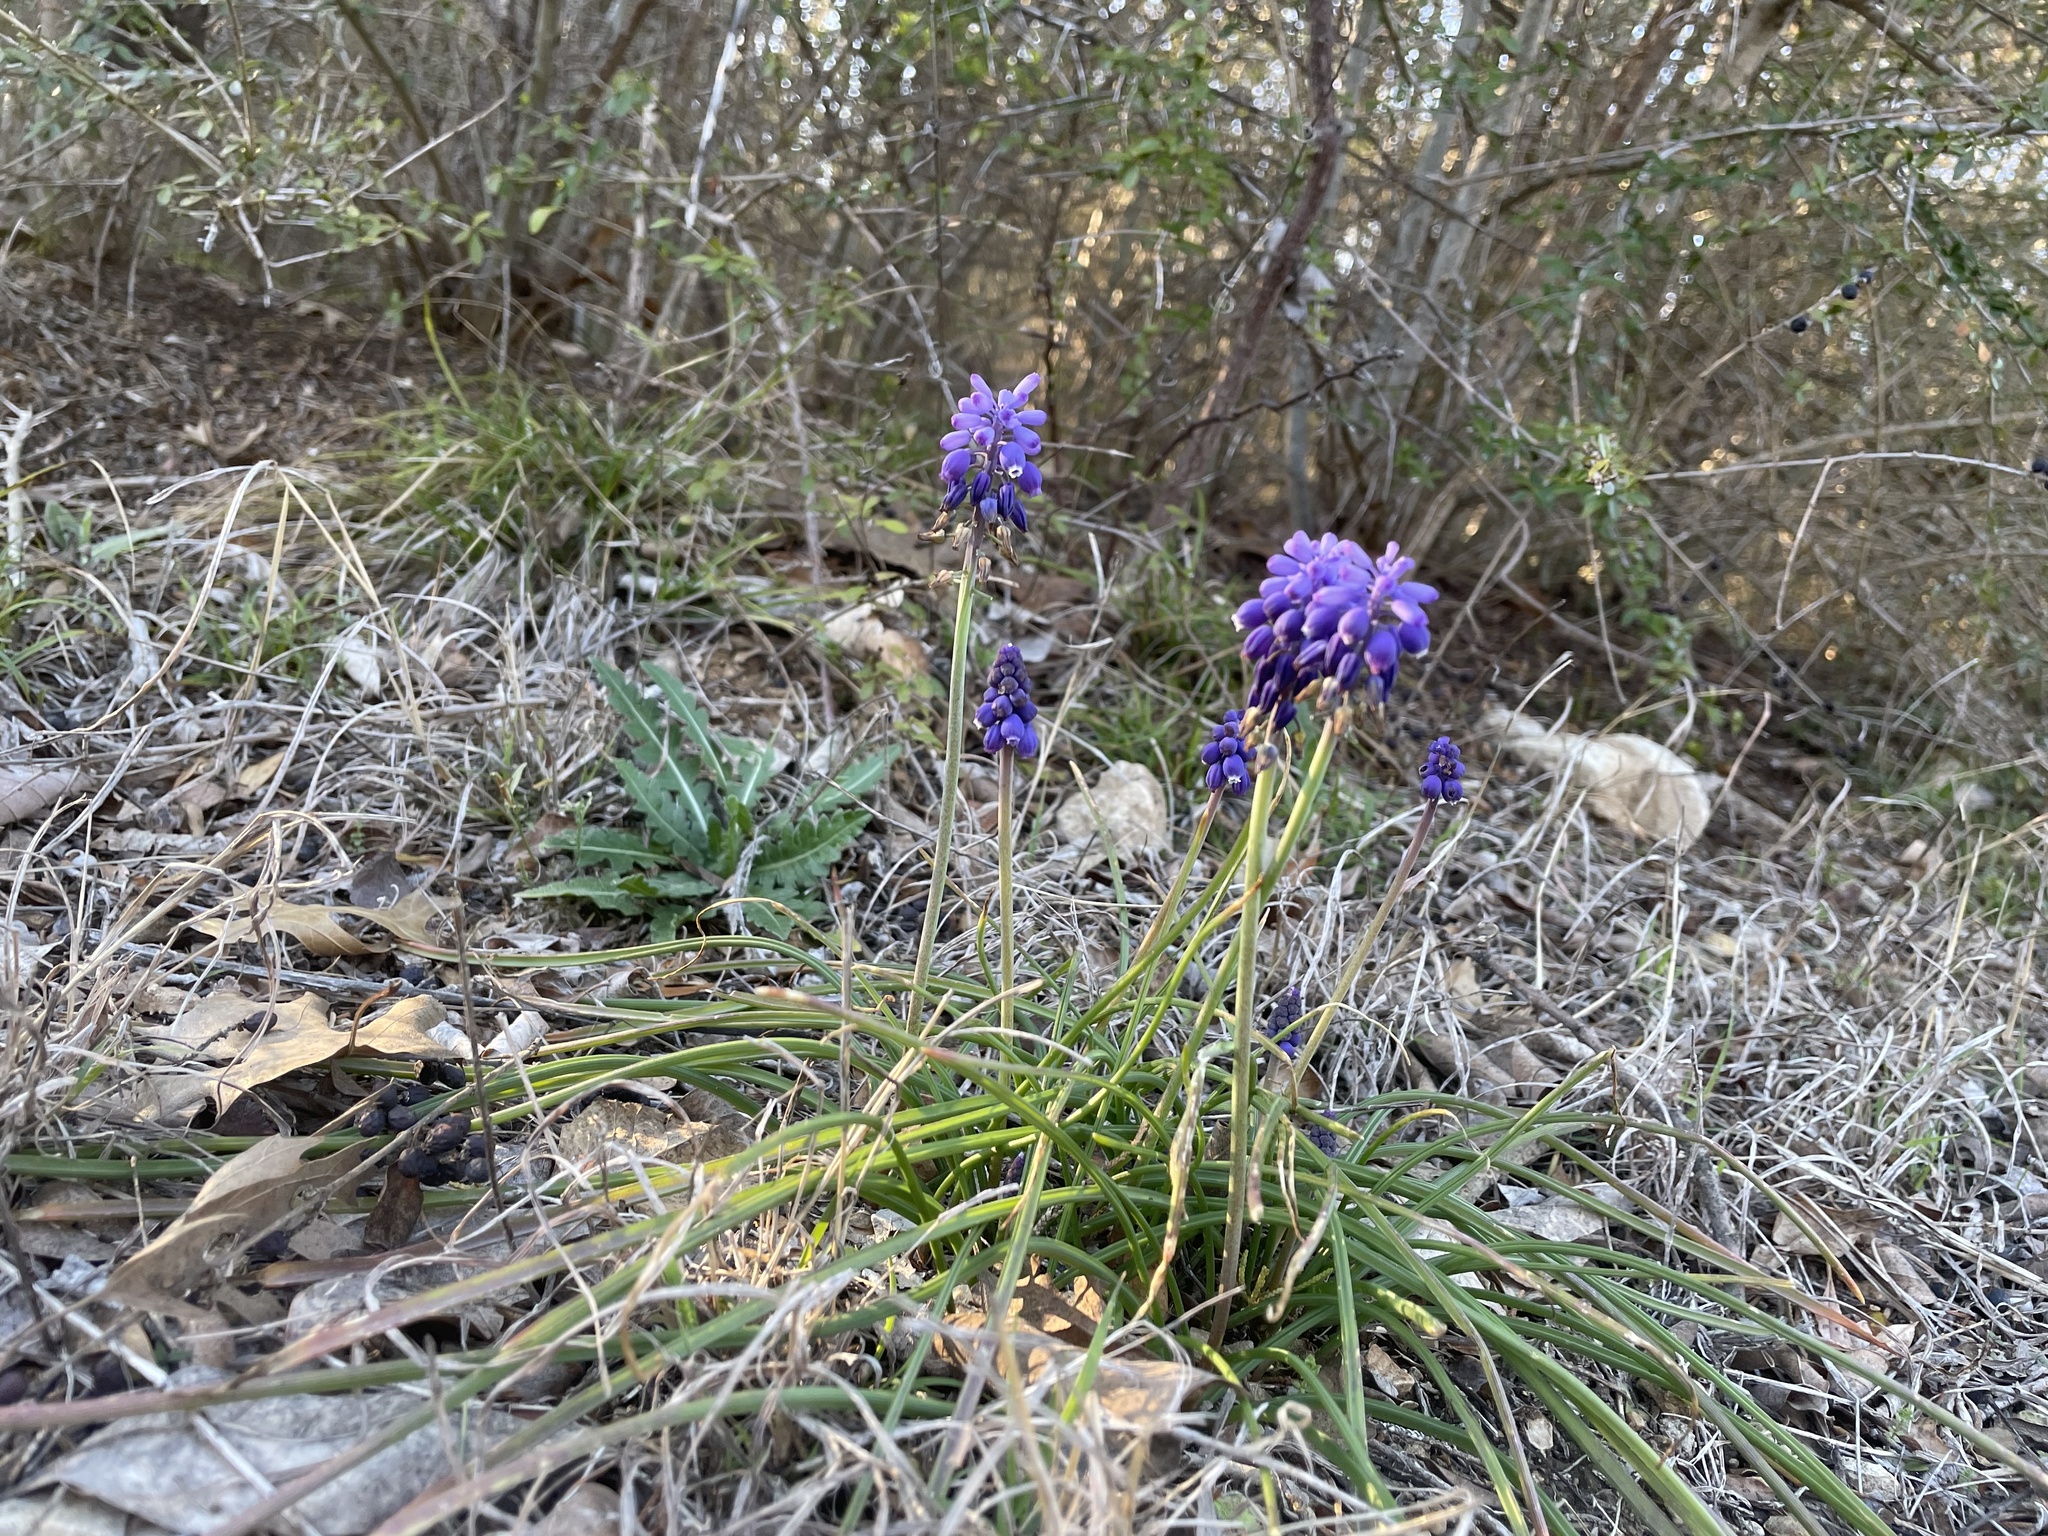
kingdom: Plantae
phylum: Tracheophyta
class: Liliopsida
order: Asparagales
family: Asparagaceae
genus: Muscari
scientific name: Muscari neglectum
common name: Grape-hyacinth
